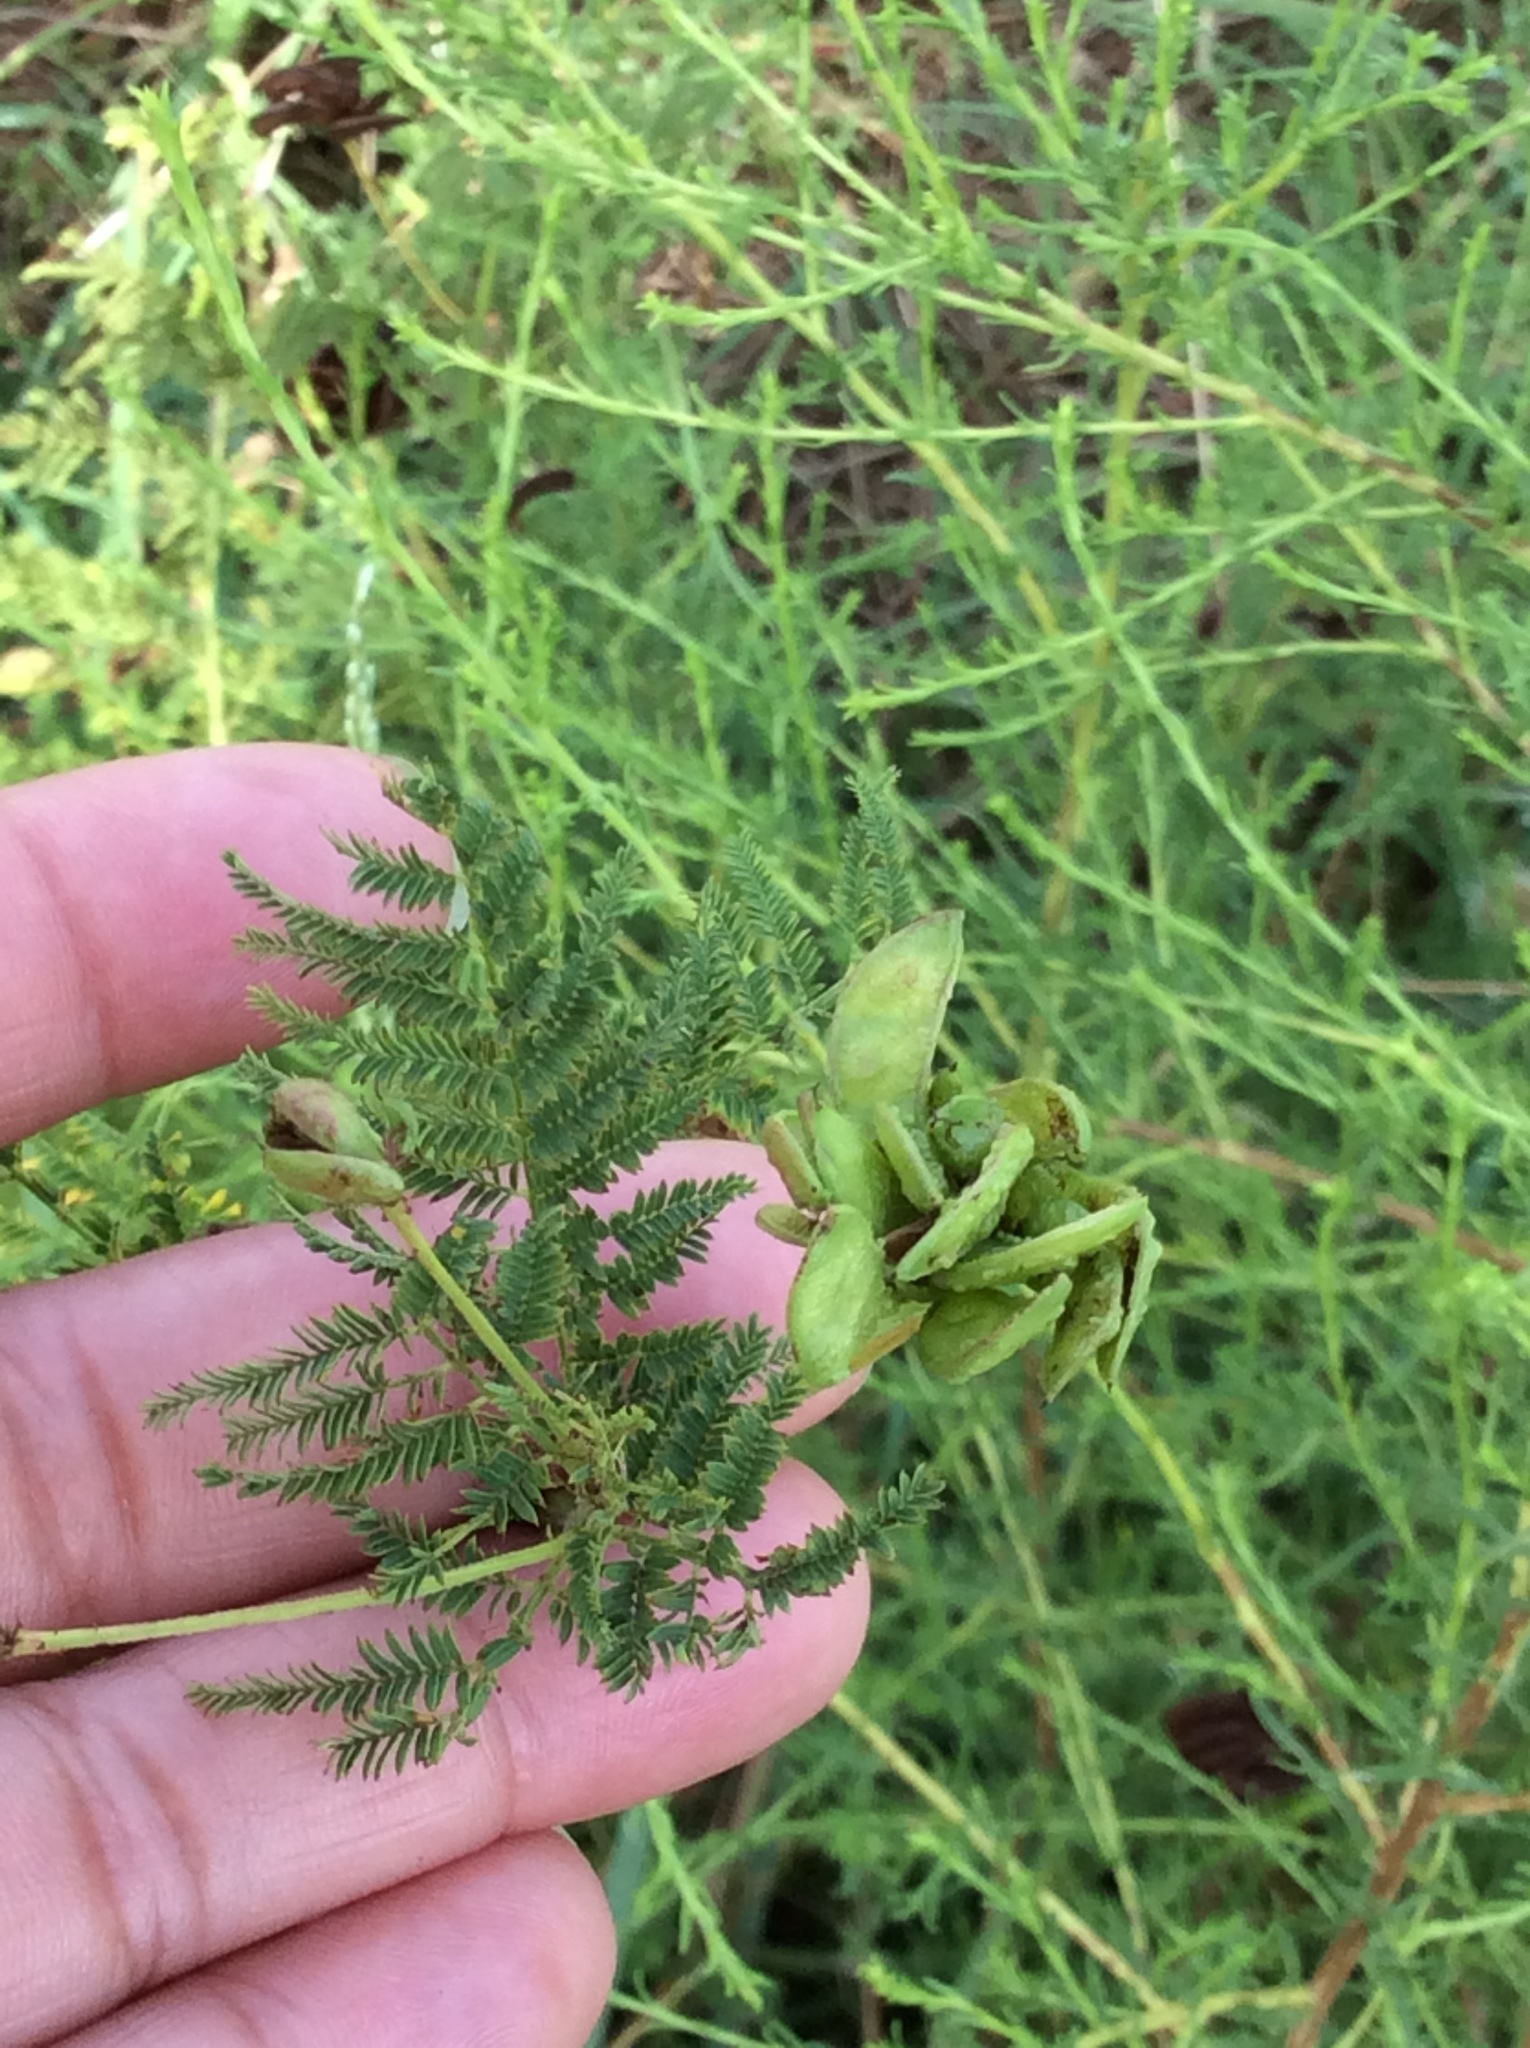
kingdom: Plantae
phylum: Tracheophyta
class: Magnoliopsida
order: Fabales
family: Fabaceae
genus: Desmanthus
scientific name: Desmanthus illinoensis
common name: Illinois bundle-flower
